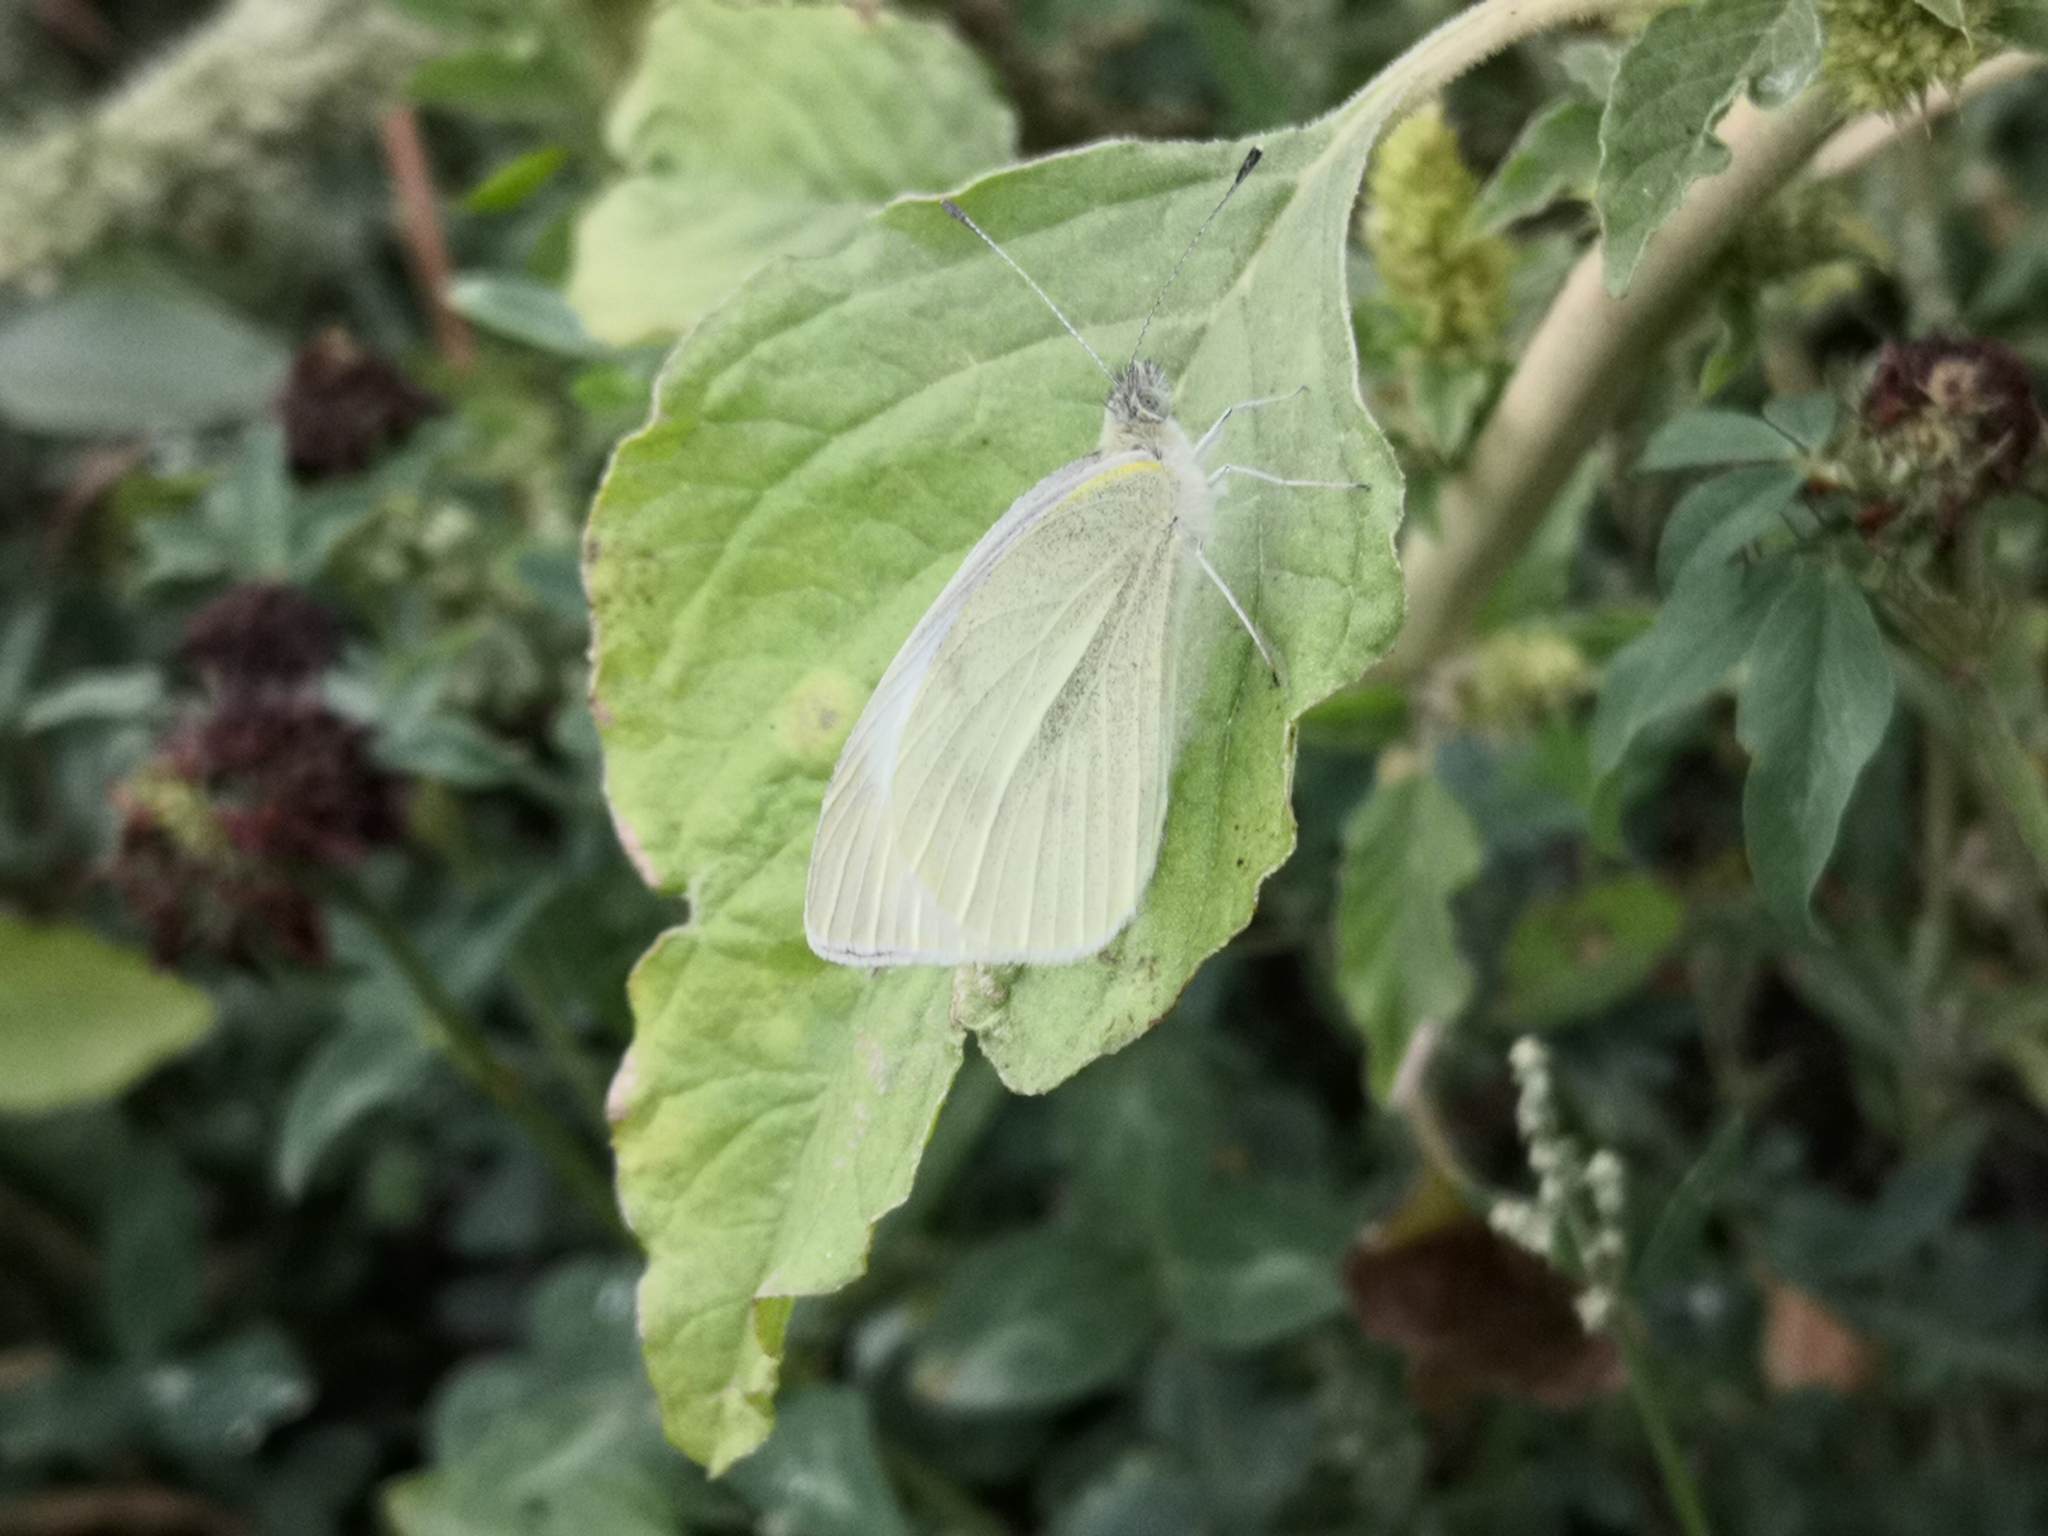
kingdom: Animalia
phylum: Arthropoda
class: Insecta
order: Lepidoptera
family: Pieridae
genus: Pieris
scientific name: Pieris rapae
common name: Small white
